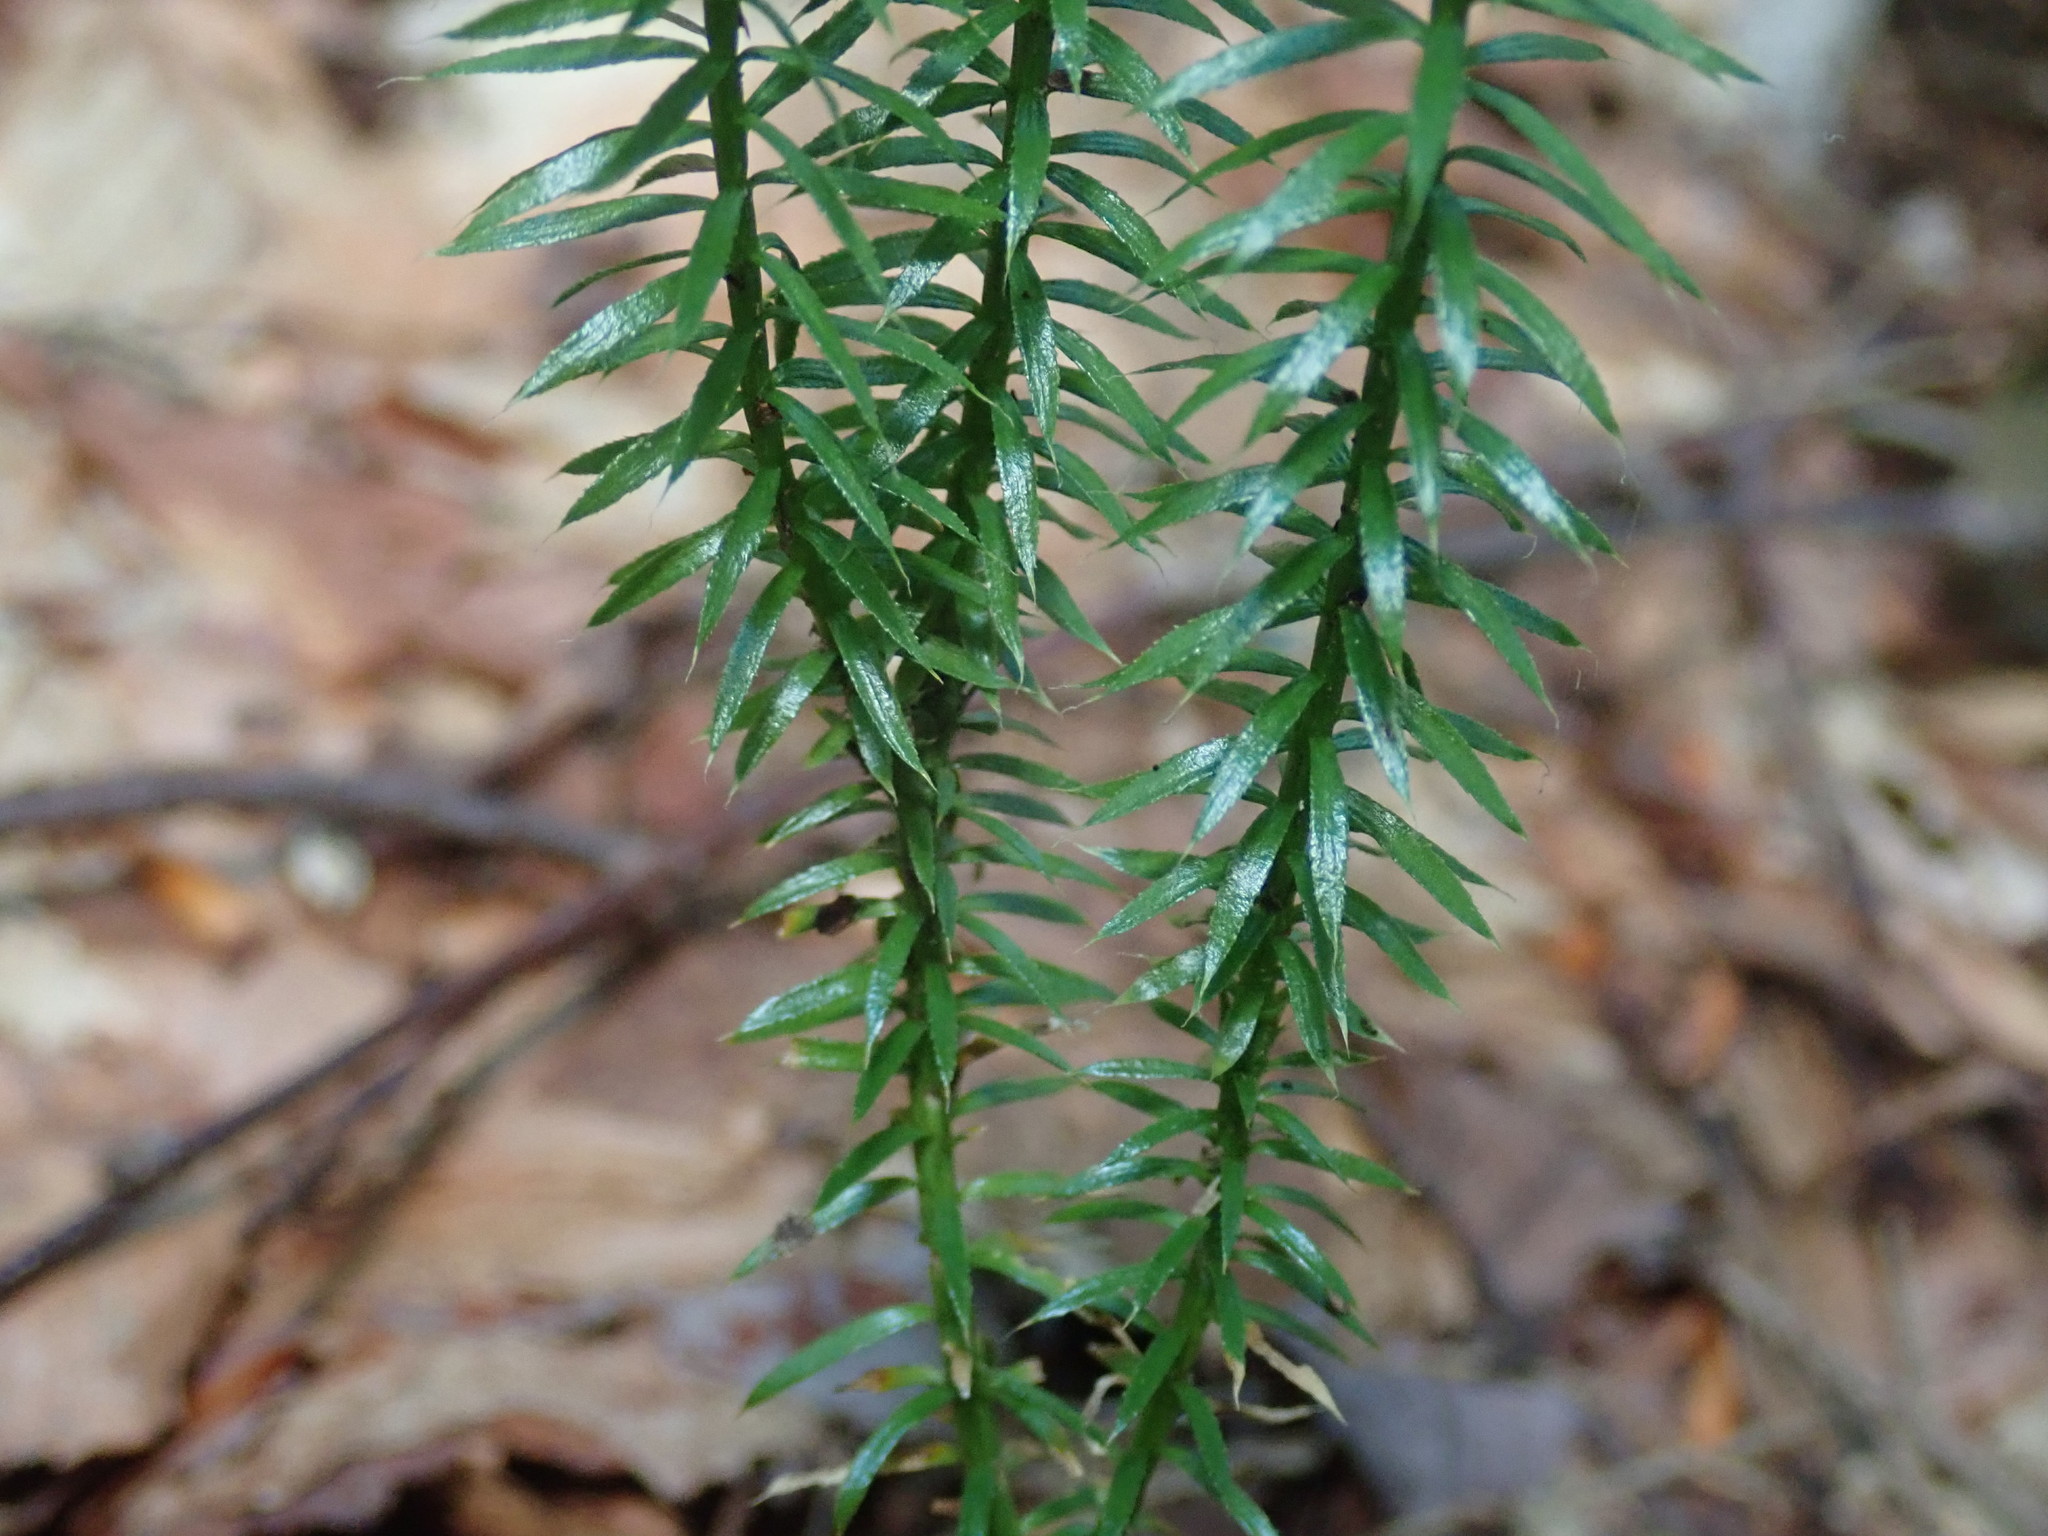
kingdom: Plantae
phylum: Tracheophyta
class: Lycopodiopsida
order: Lycopodiales
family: Lycopodiaceae
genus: Spinulum
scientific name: Spinulum annotinum
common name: Interrupted club-moss
